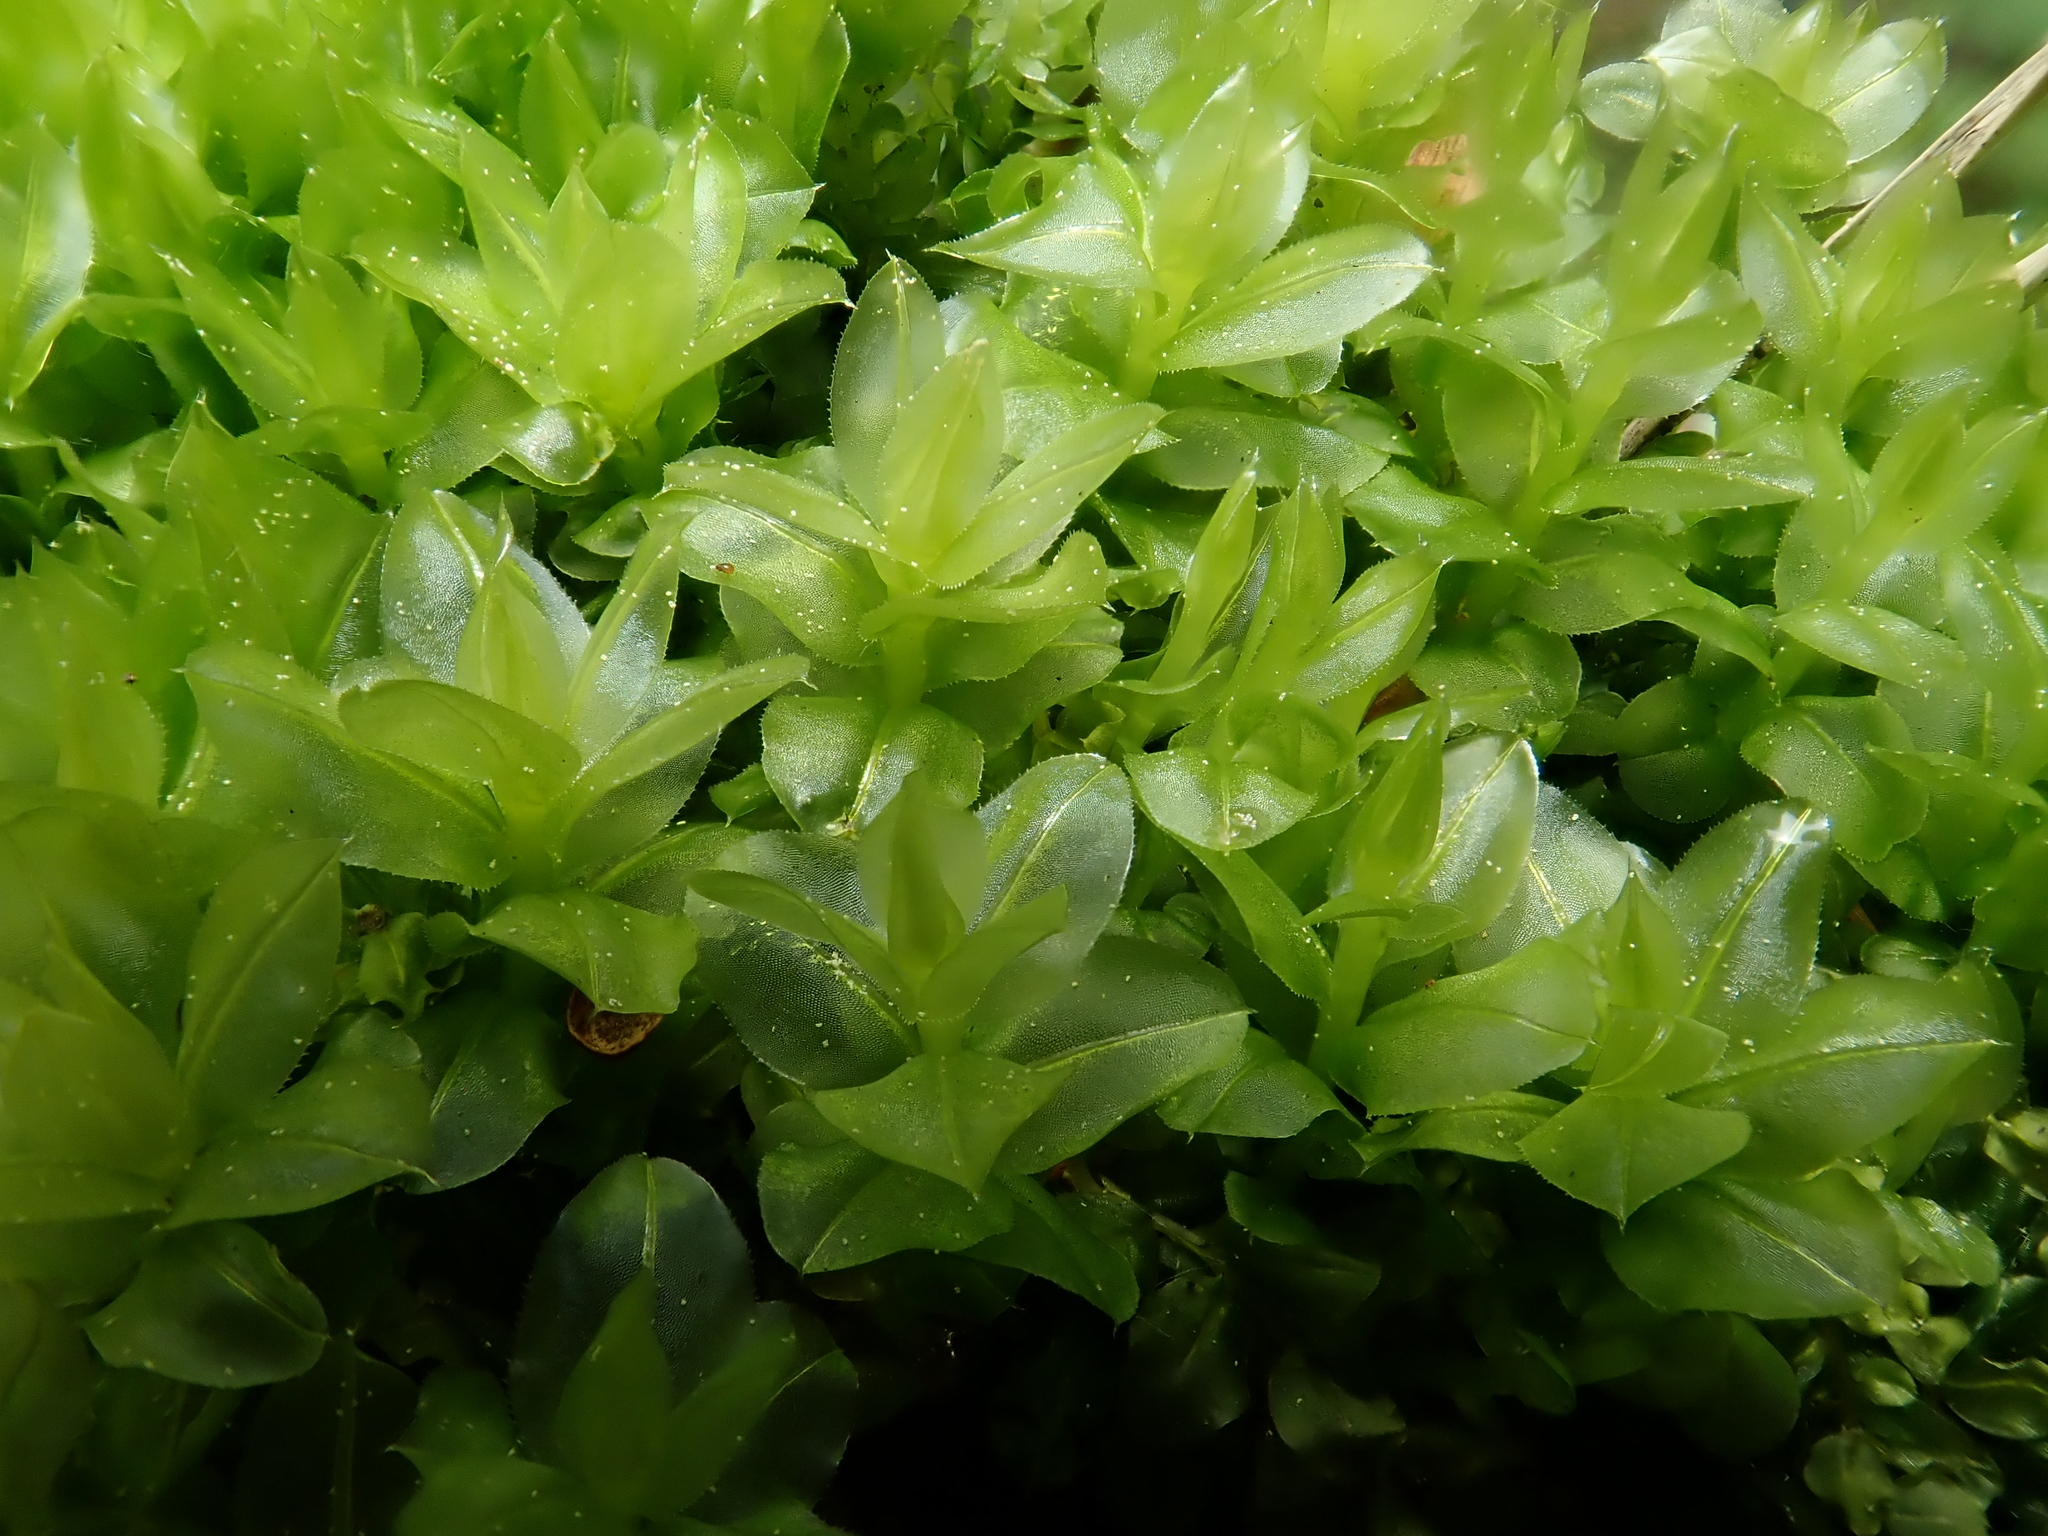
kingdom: Plantae
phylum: Bryophyta
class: Bryopsida
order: Bryales
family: Mniaceae
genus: Plagiomnium
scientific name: Plagiomnium affine
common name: Many-fruited thyme-moss
